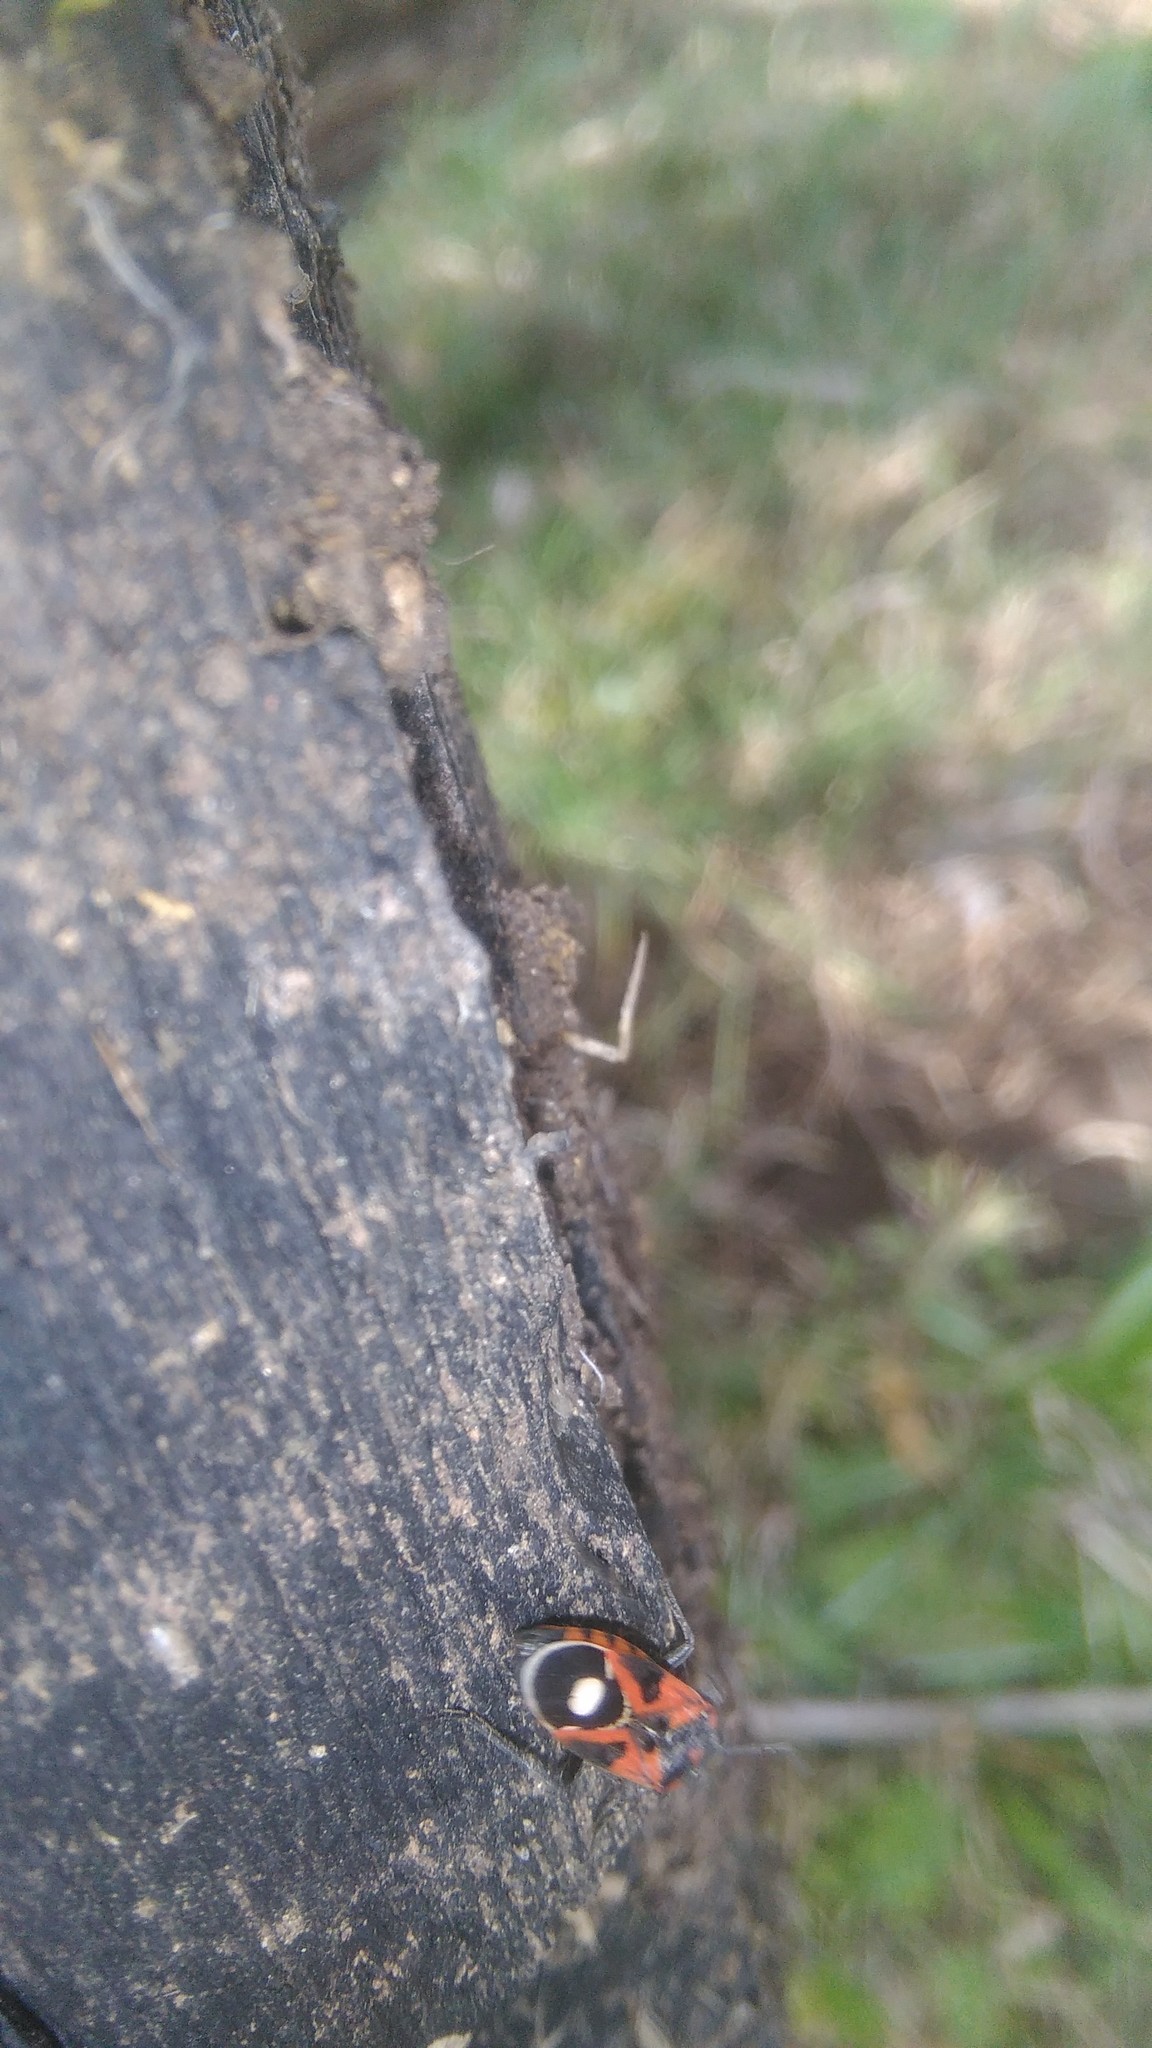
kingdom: Animalia
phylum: Arthropoda
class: Insecta
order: Hemiptera
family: Lygaeidae
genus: Lygaeus
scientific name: Lygaeus alboornatus
